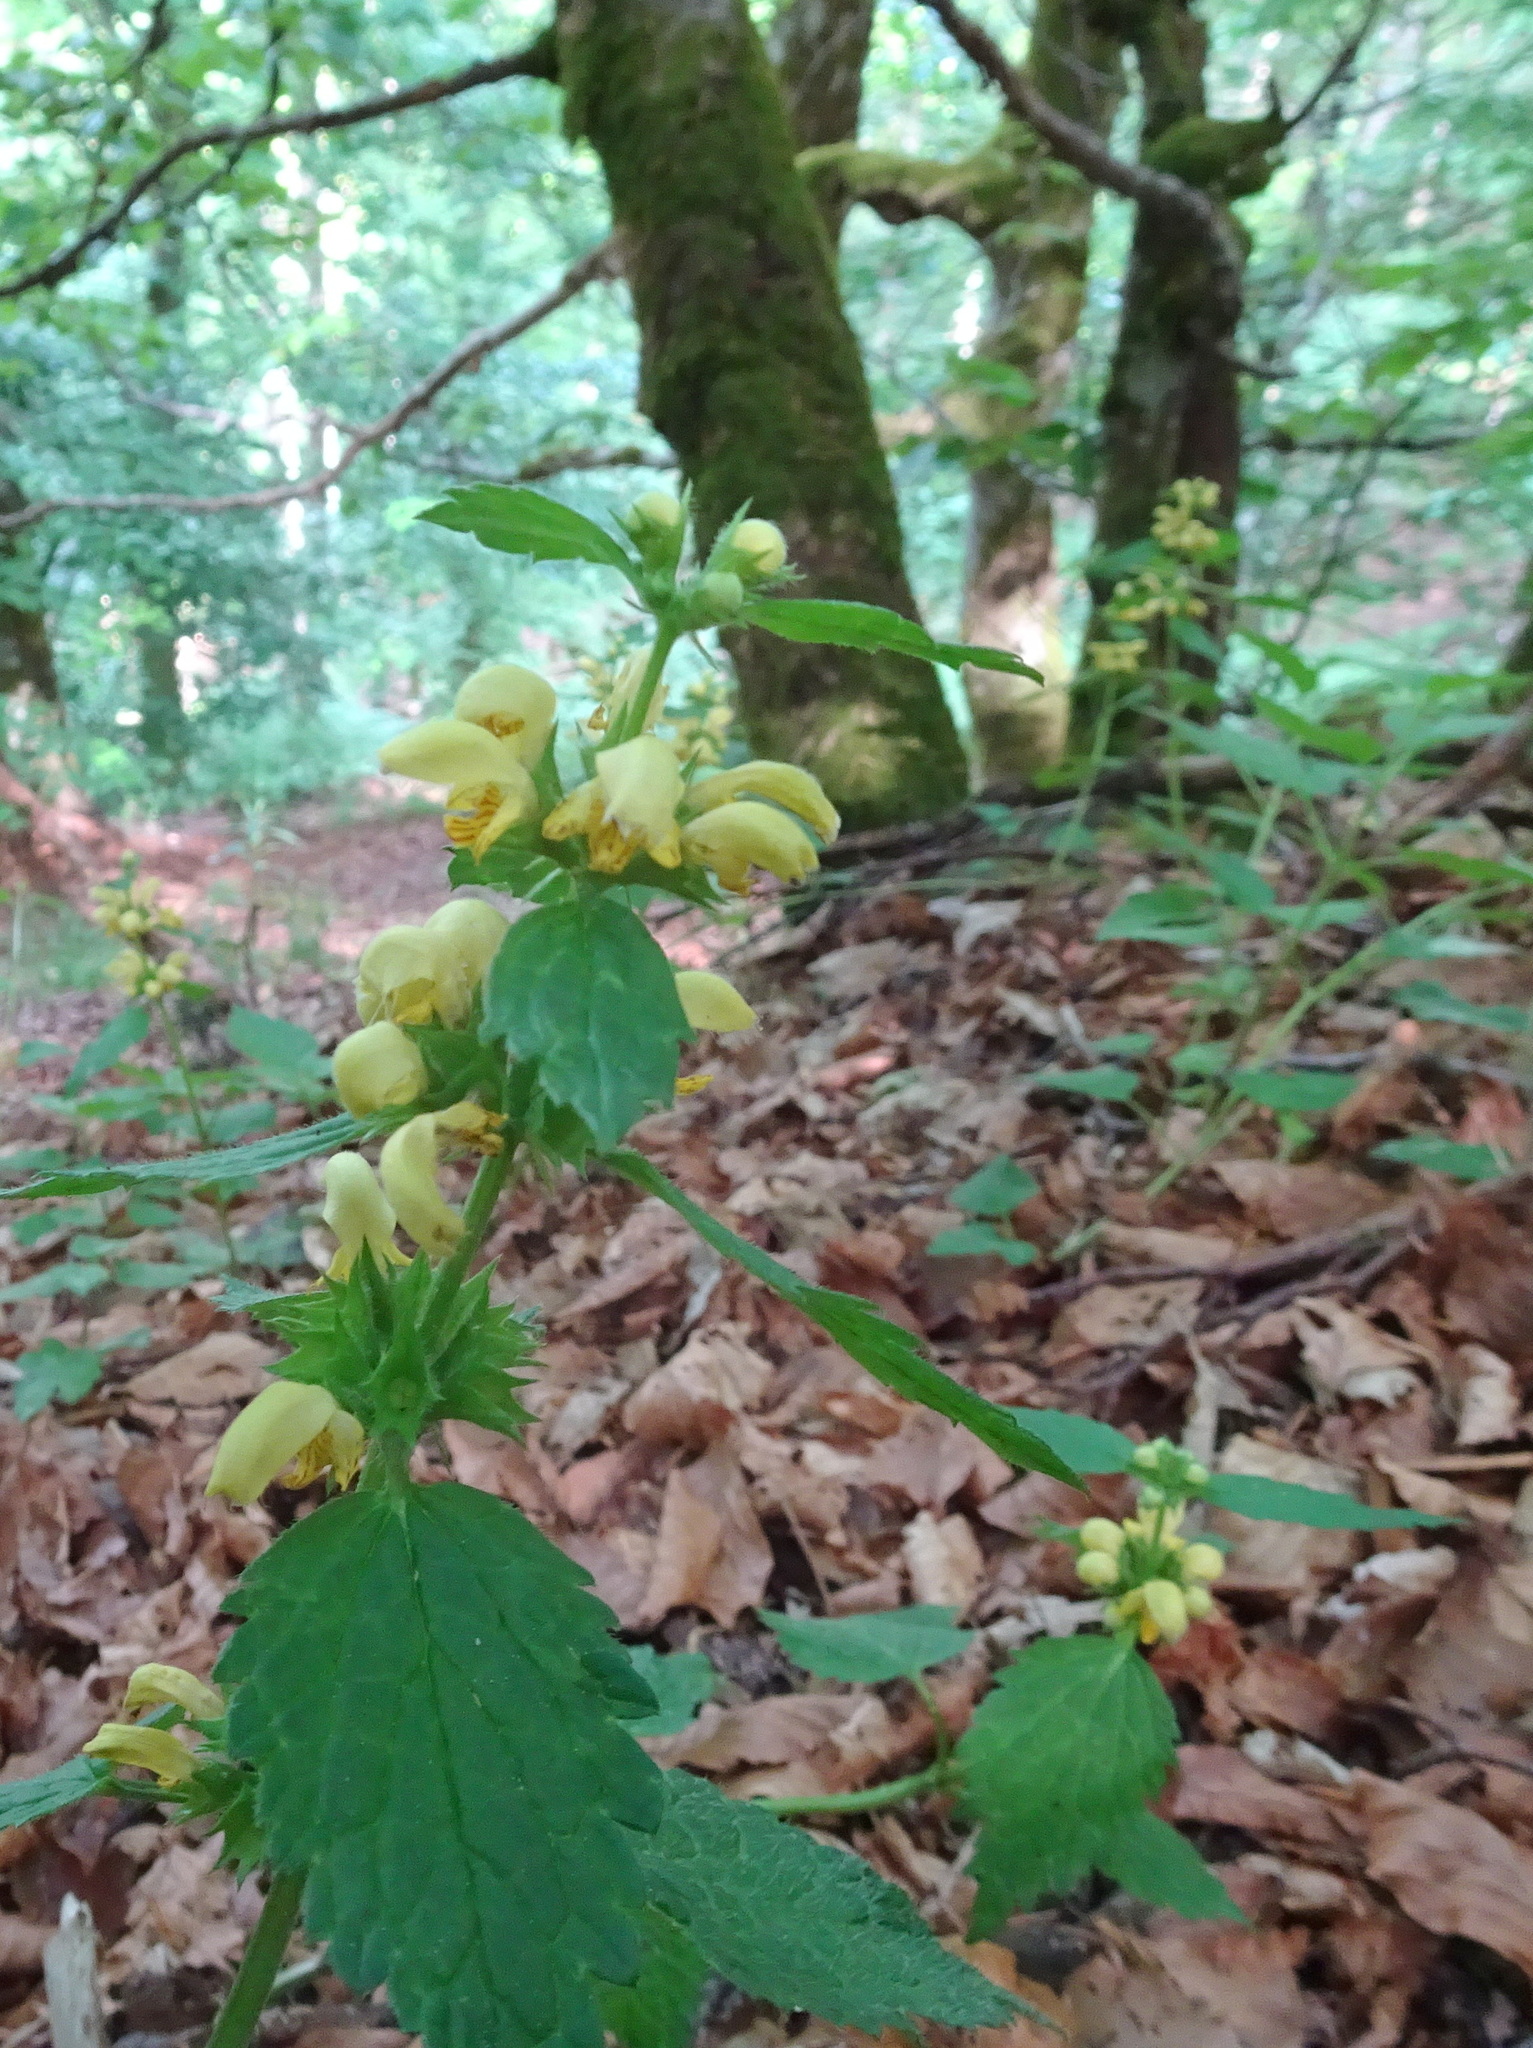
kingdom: Plantae
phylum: Tracheophyta
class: Magnoliopsida
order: Lamiales
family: Lamiaceae
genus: Lamium
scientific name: Lamium galeobdolon
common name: Yellow archangel
